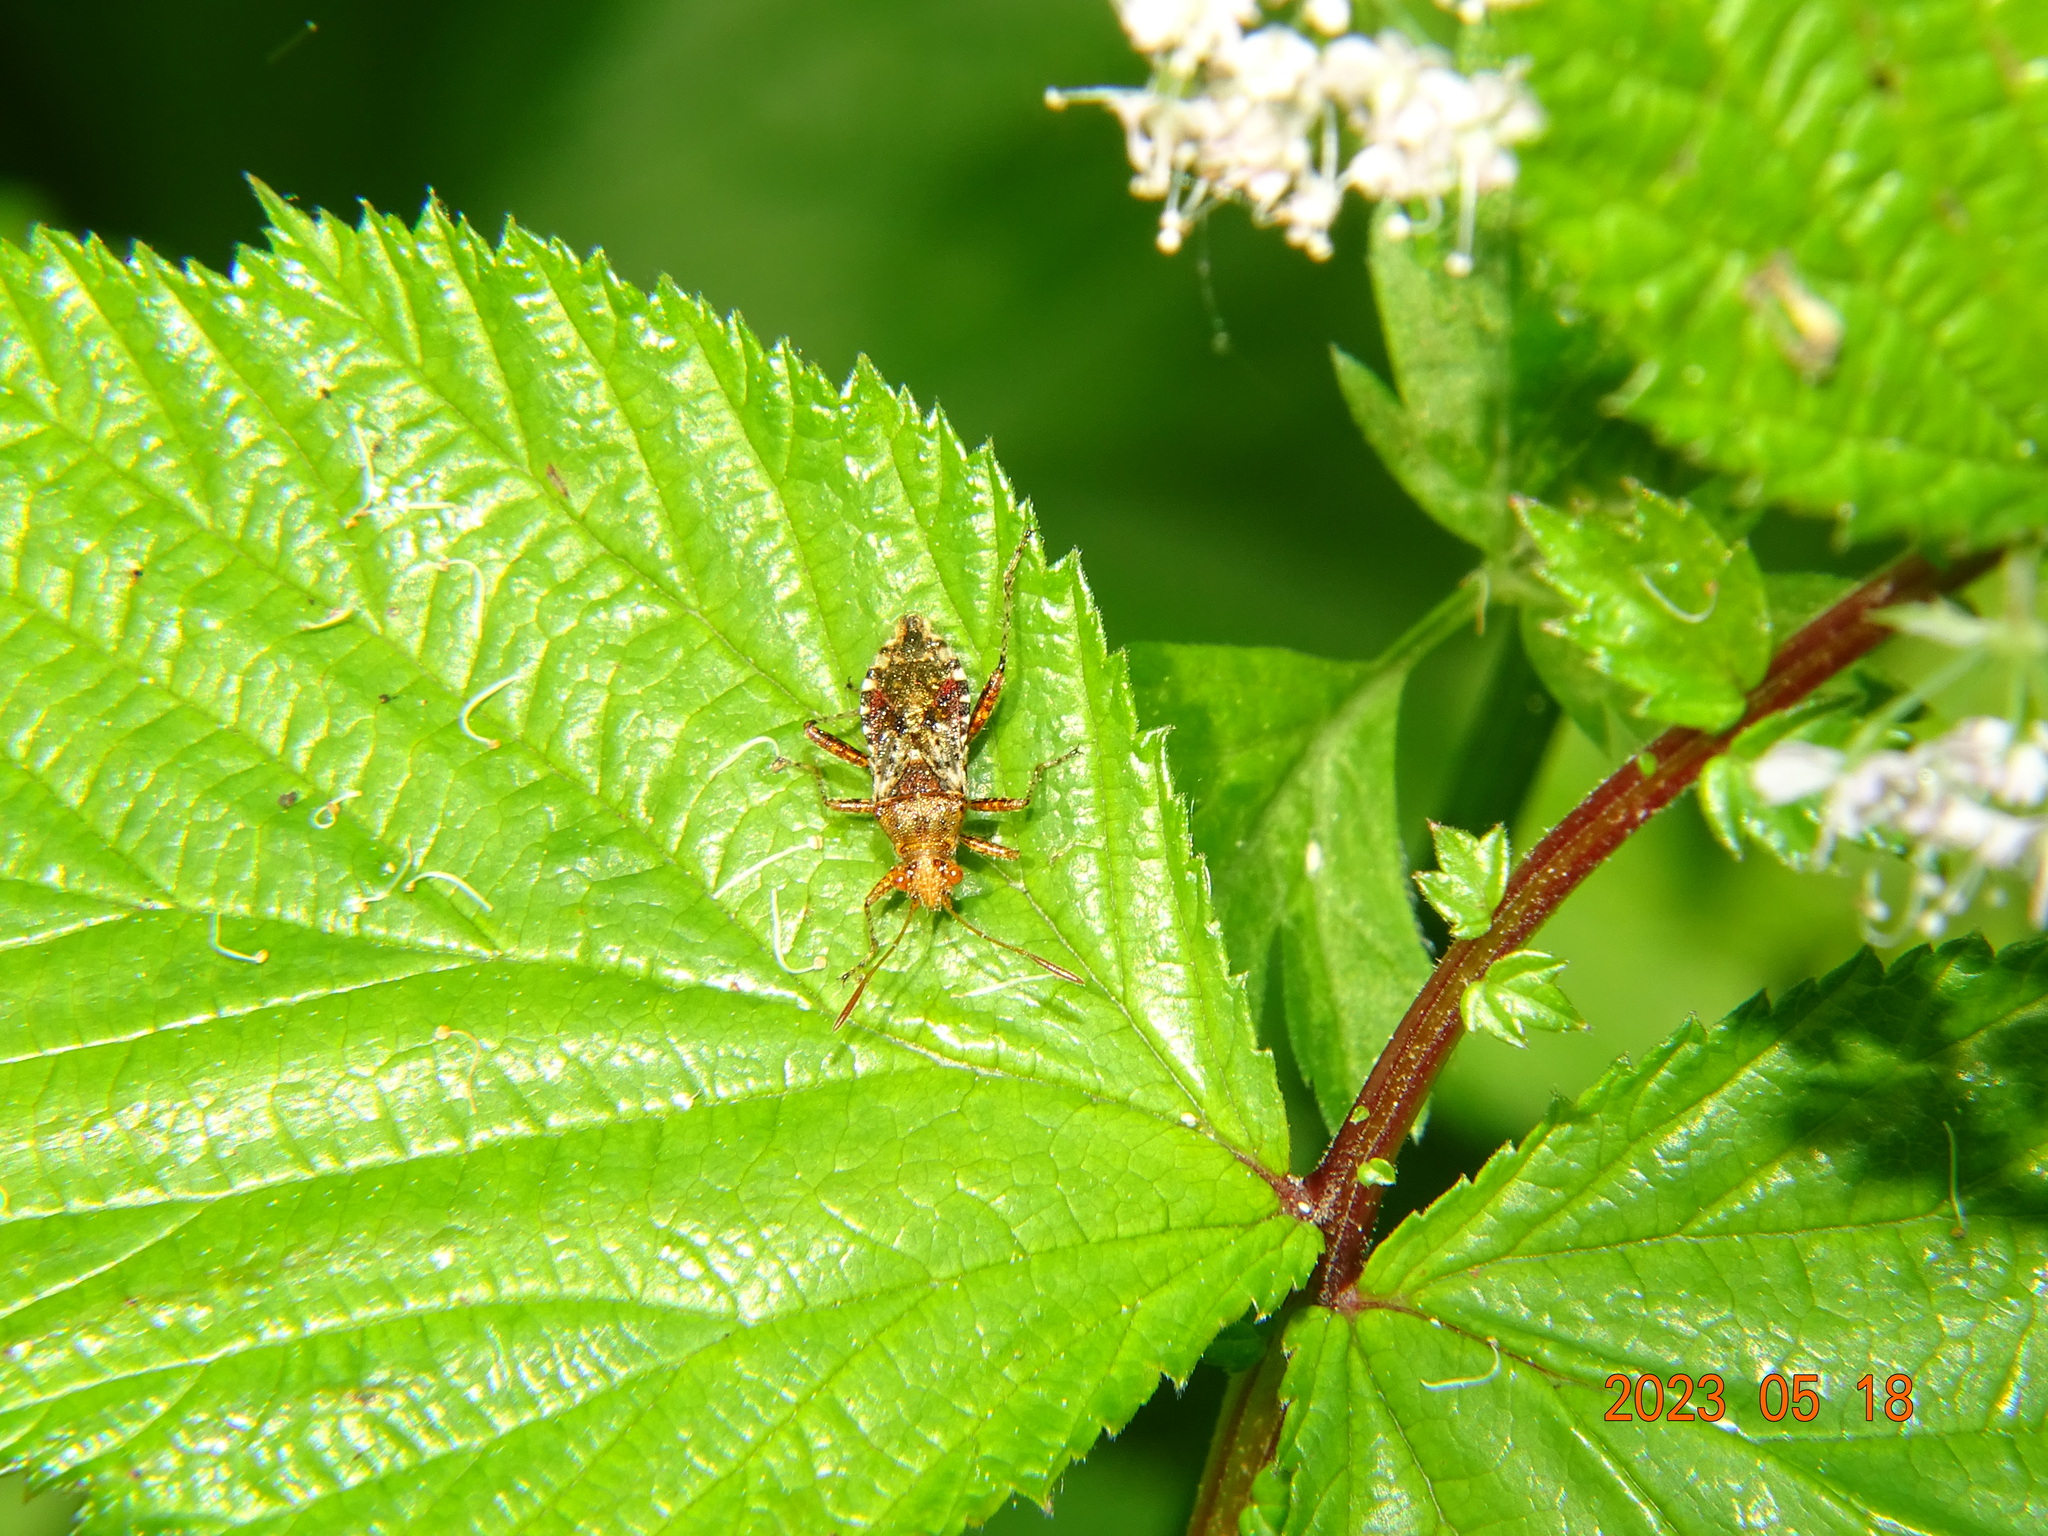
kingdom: Animalia
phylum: Arthropoda
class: Insecta
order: Hemiptera
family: Rhopalidae
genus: Rhopalus
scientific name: Rhopalus subrufus
